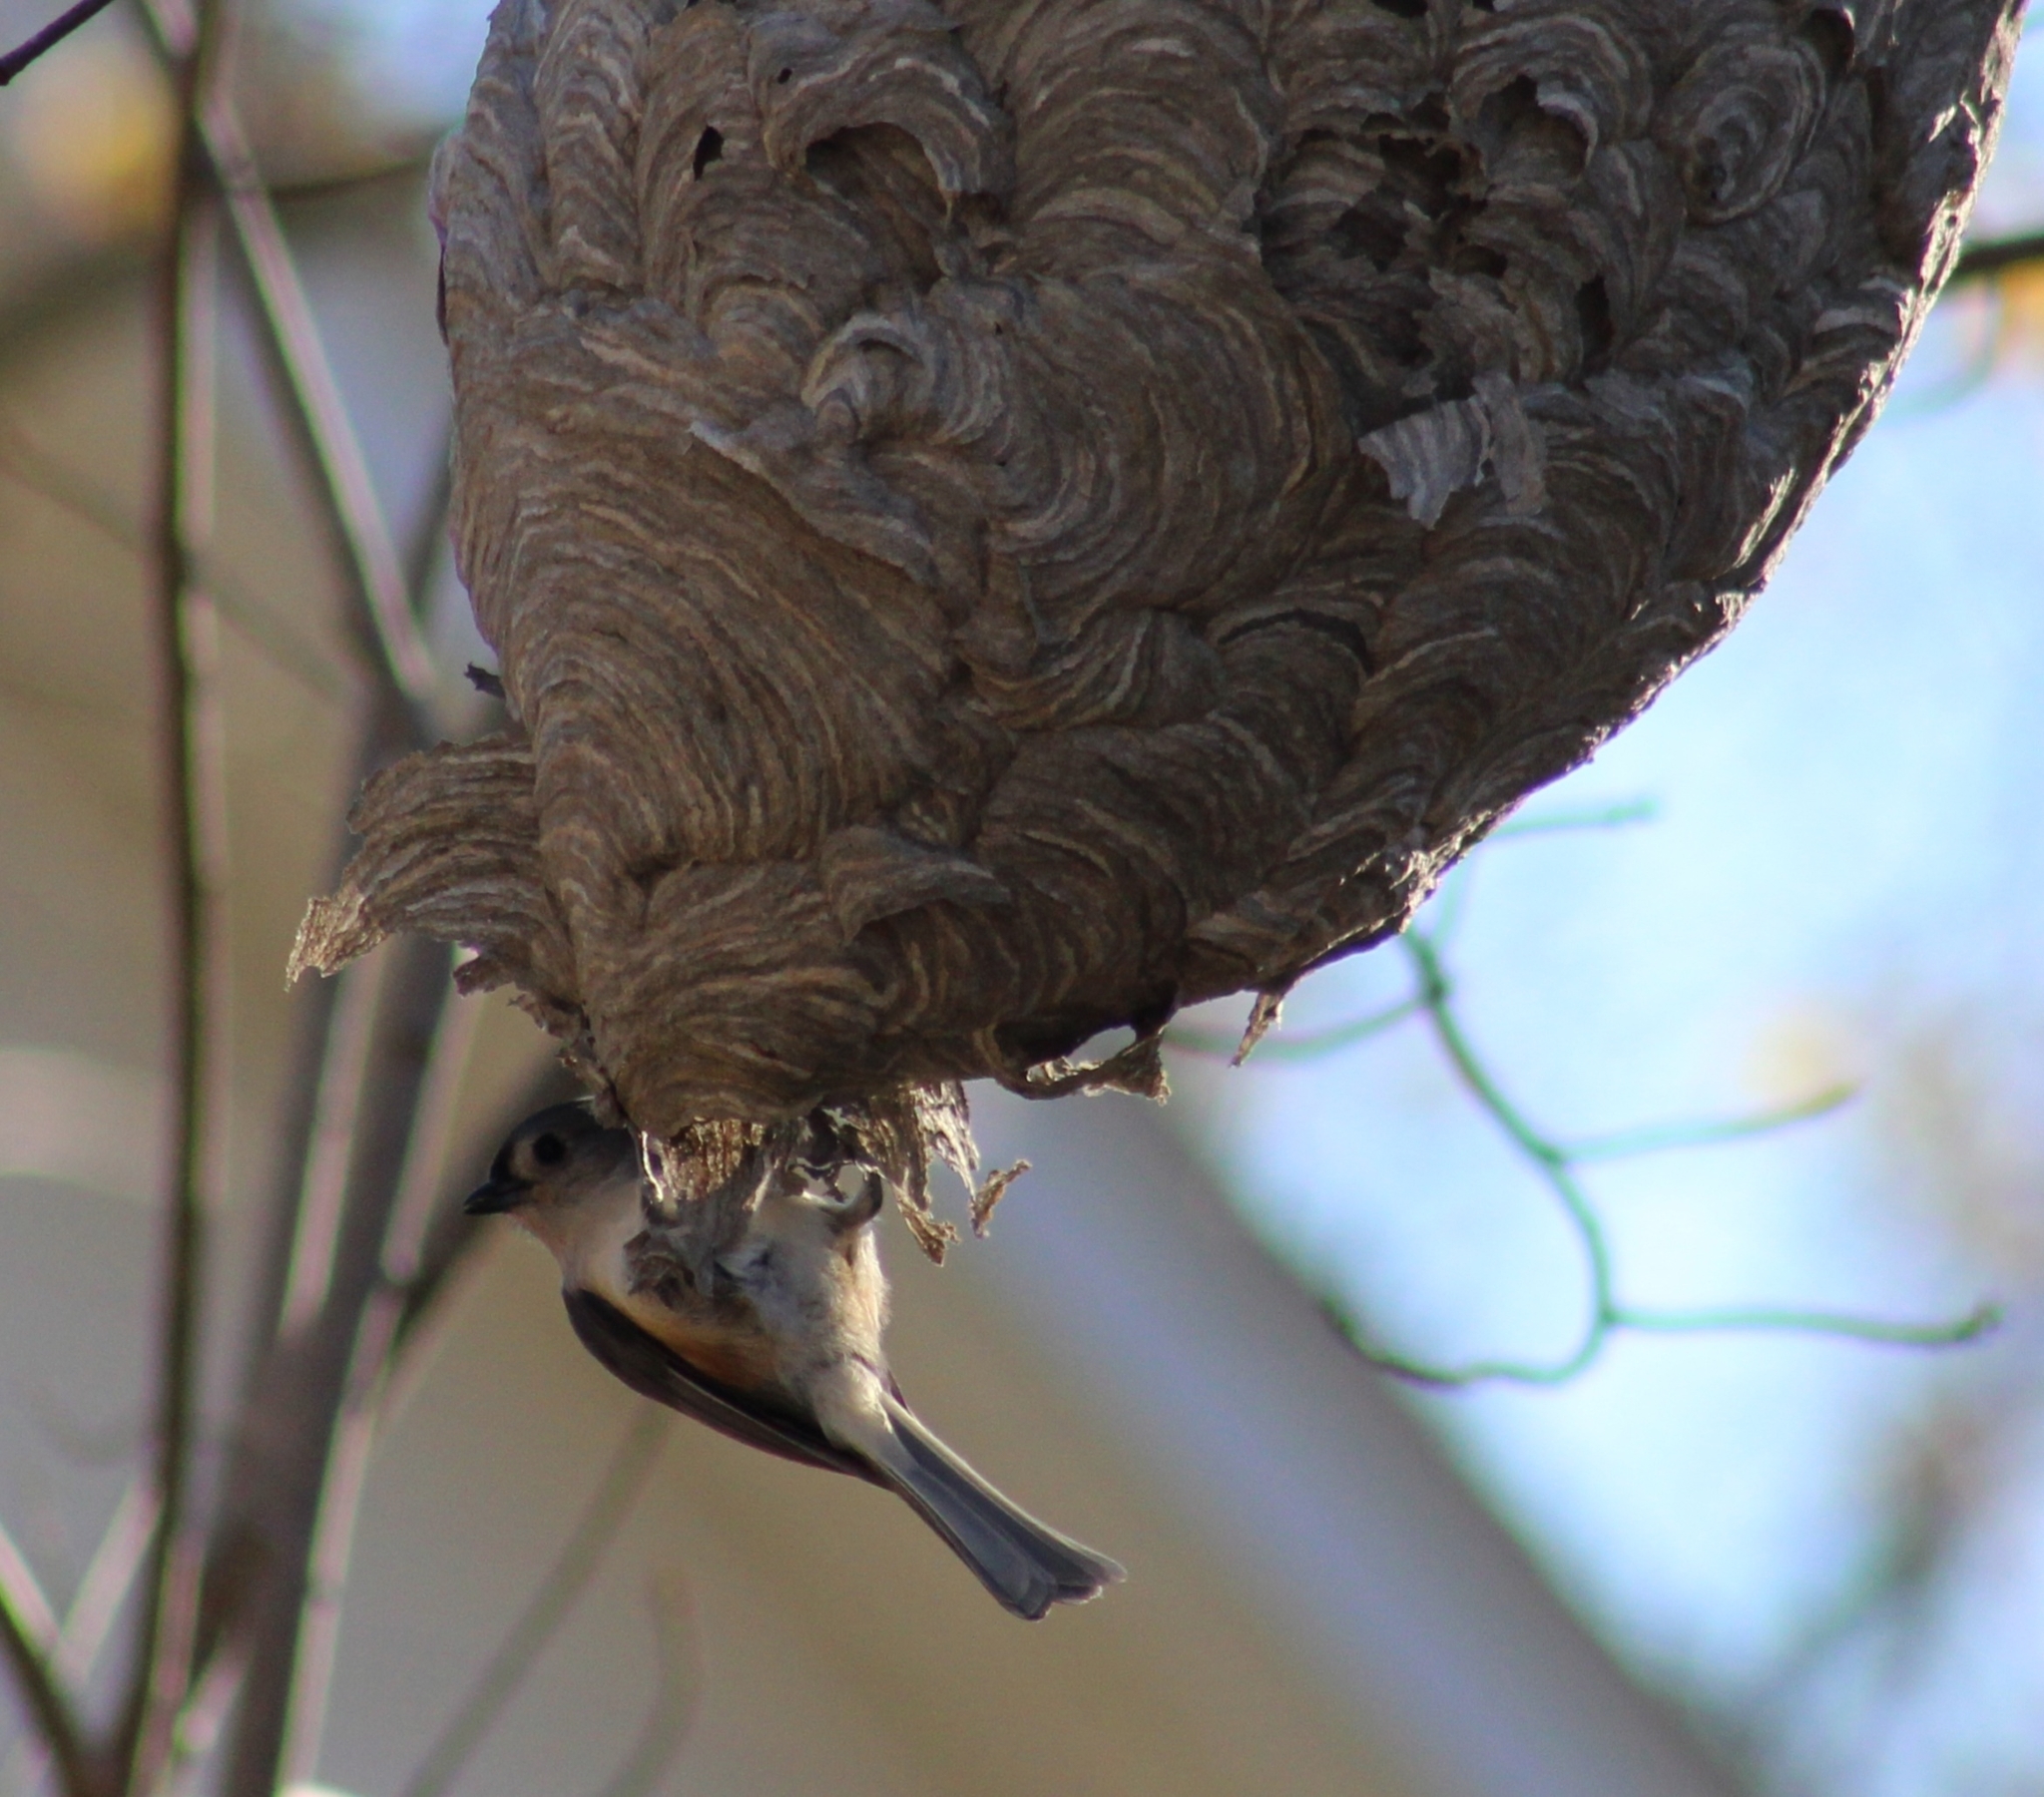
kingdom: Animalia
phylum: Chordata
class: Aves
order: Passeriformes
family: Paridae
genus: Baeolophus
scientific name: Baeolophus bicolor
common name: Tufted titmouse
